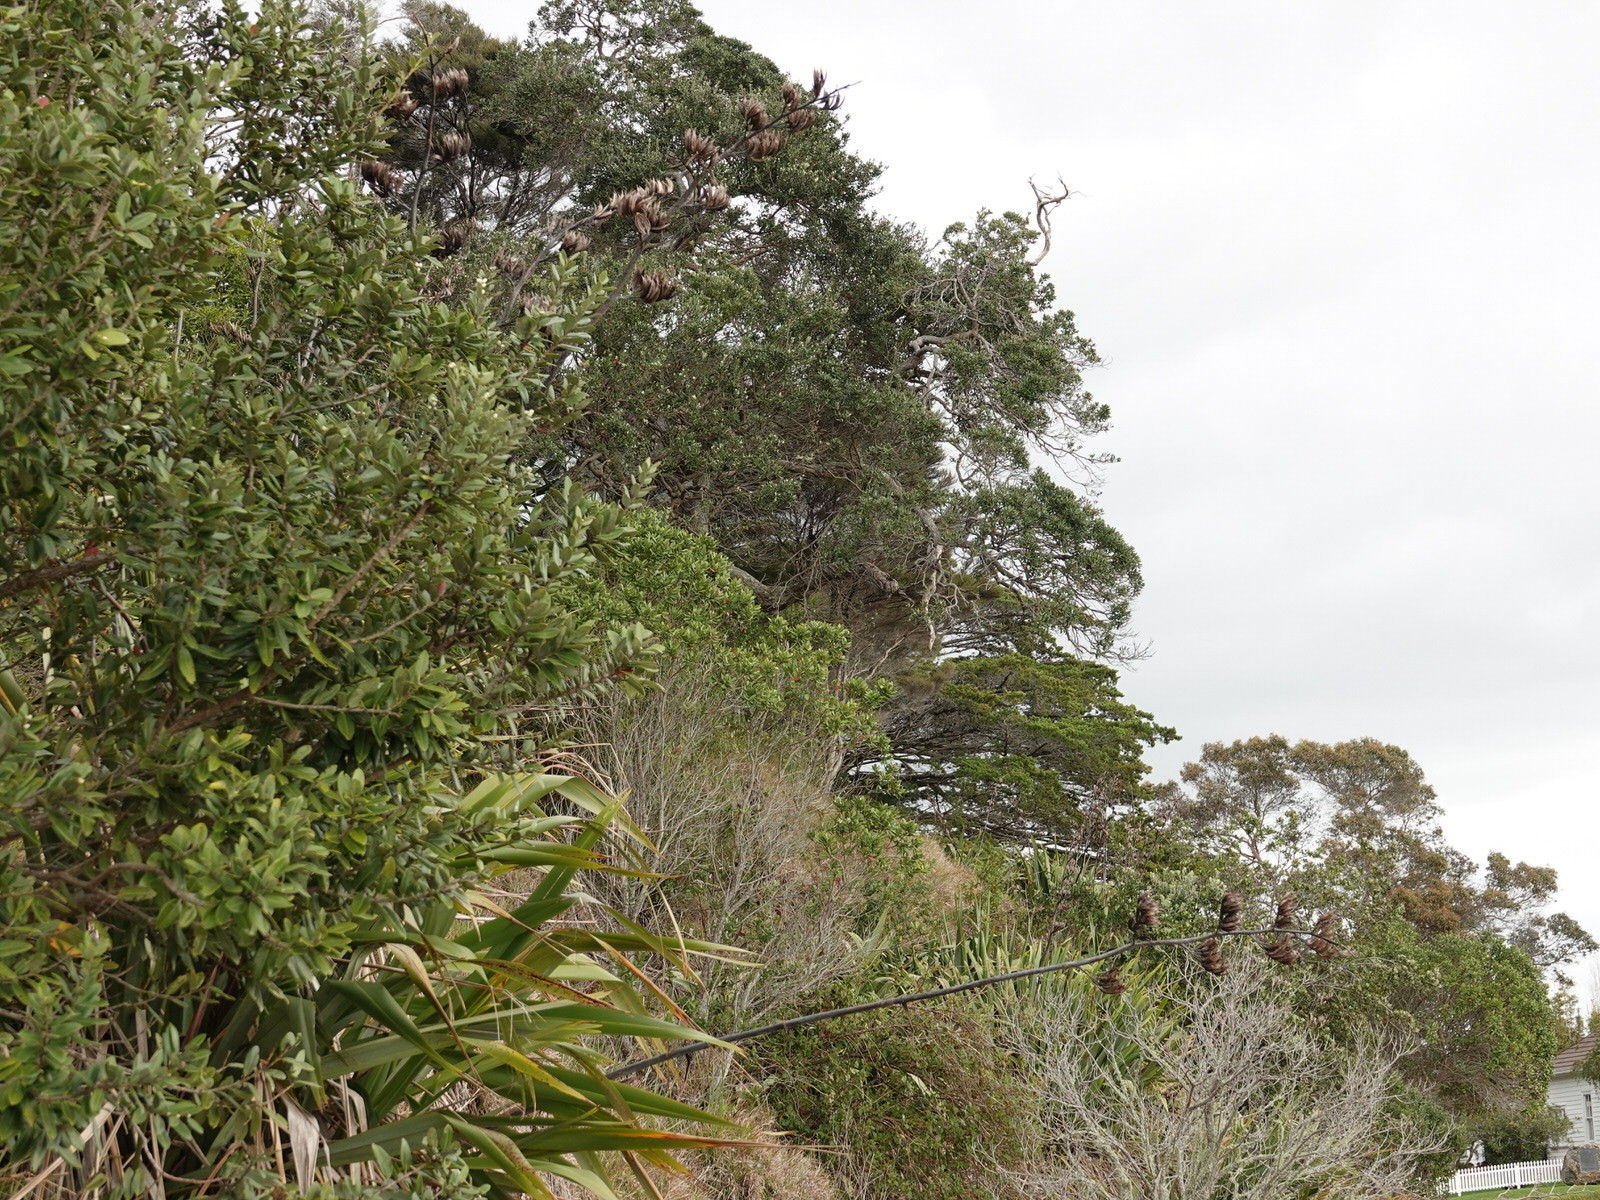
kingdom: Animalia
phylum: Chordata
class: Aves
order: Anseriformes
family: Anatidae
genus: Tadorna
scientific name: Tadorna variegata
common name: Paradise shelduck
